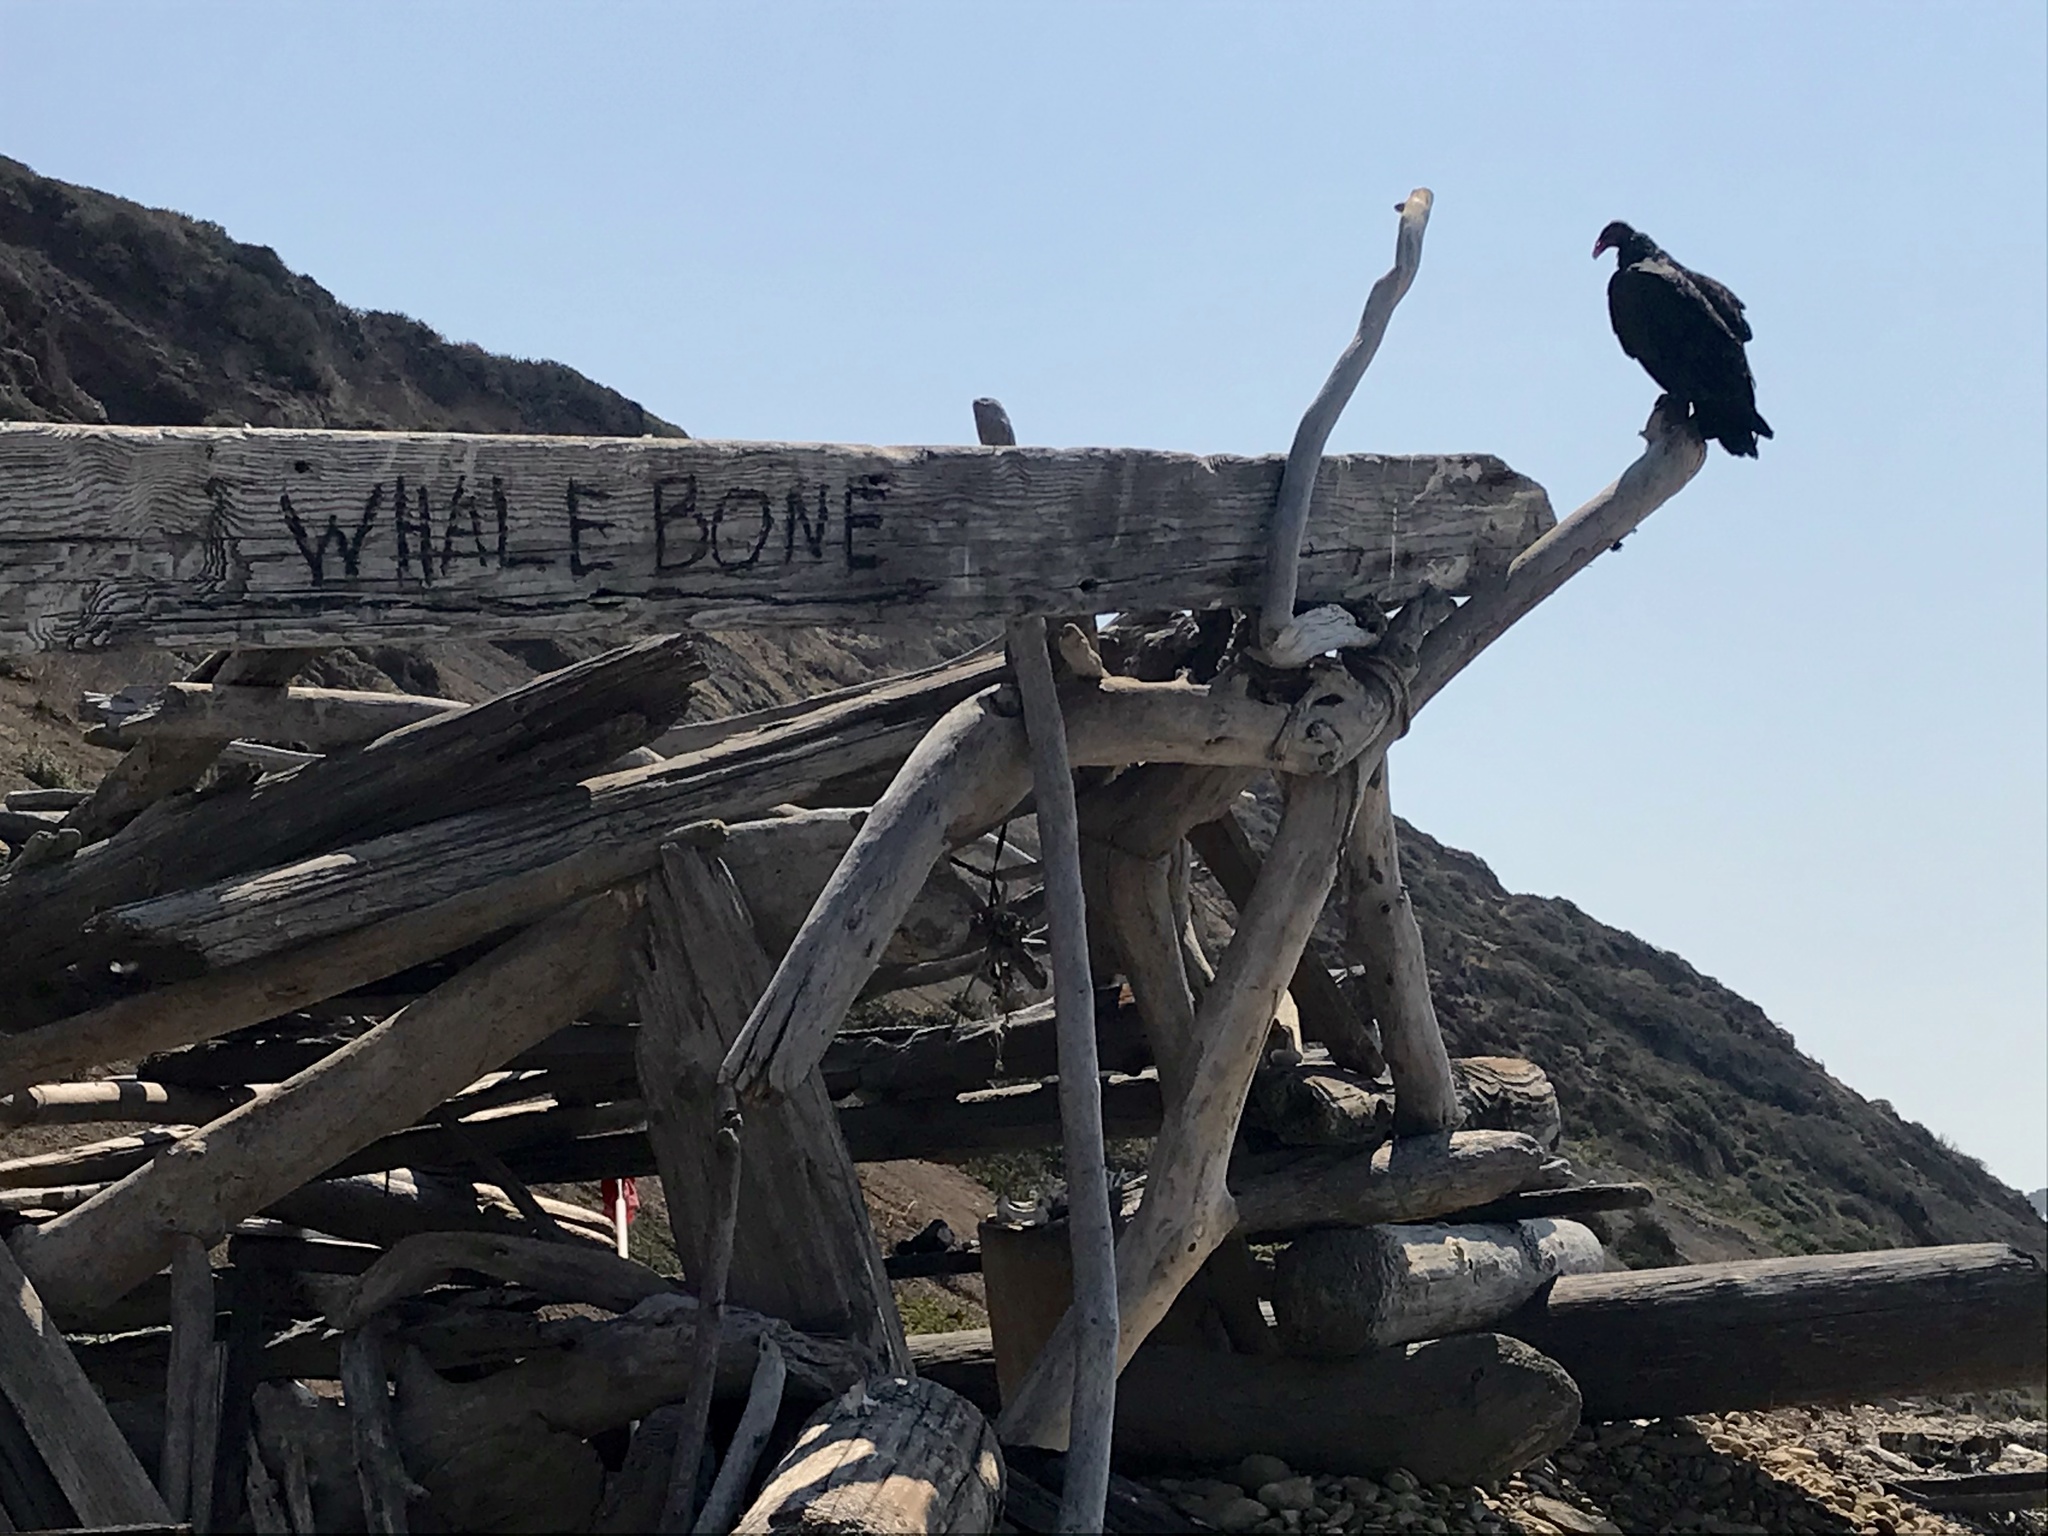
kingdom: Animalia
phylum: Chordata
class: Aves
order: Accipitriformes
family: Cathartidae
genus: Cathartes
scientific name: Cathartes aura
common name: Turkey vulture
